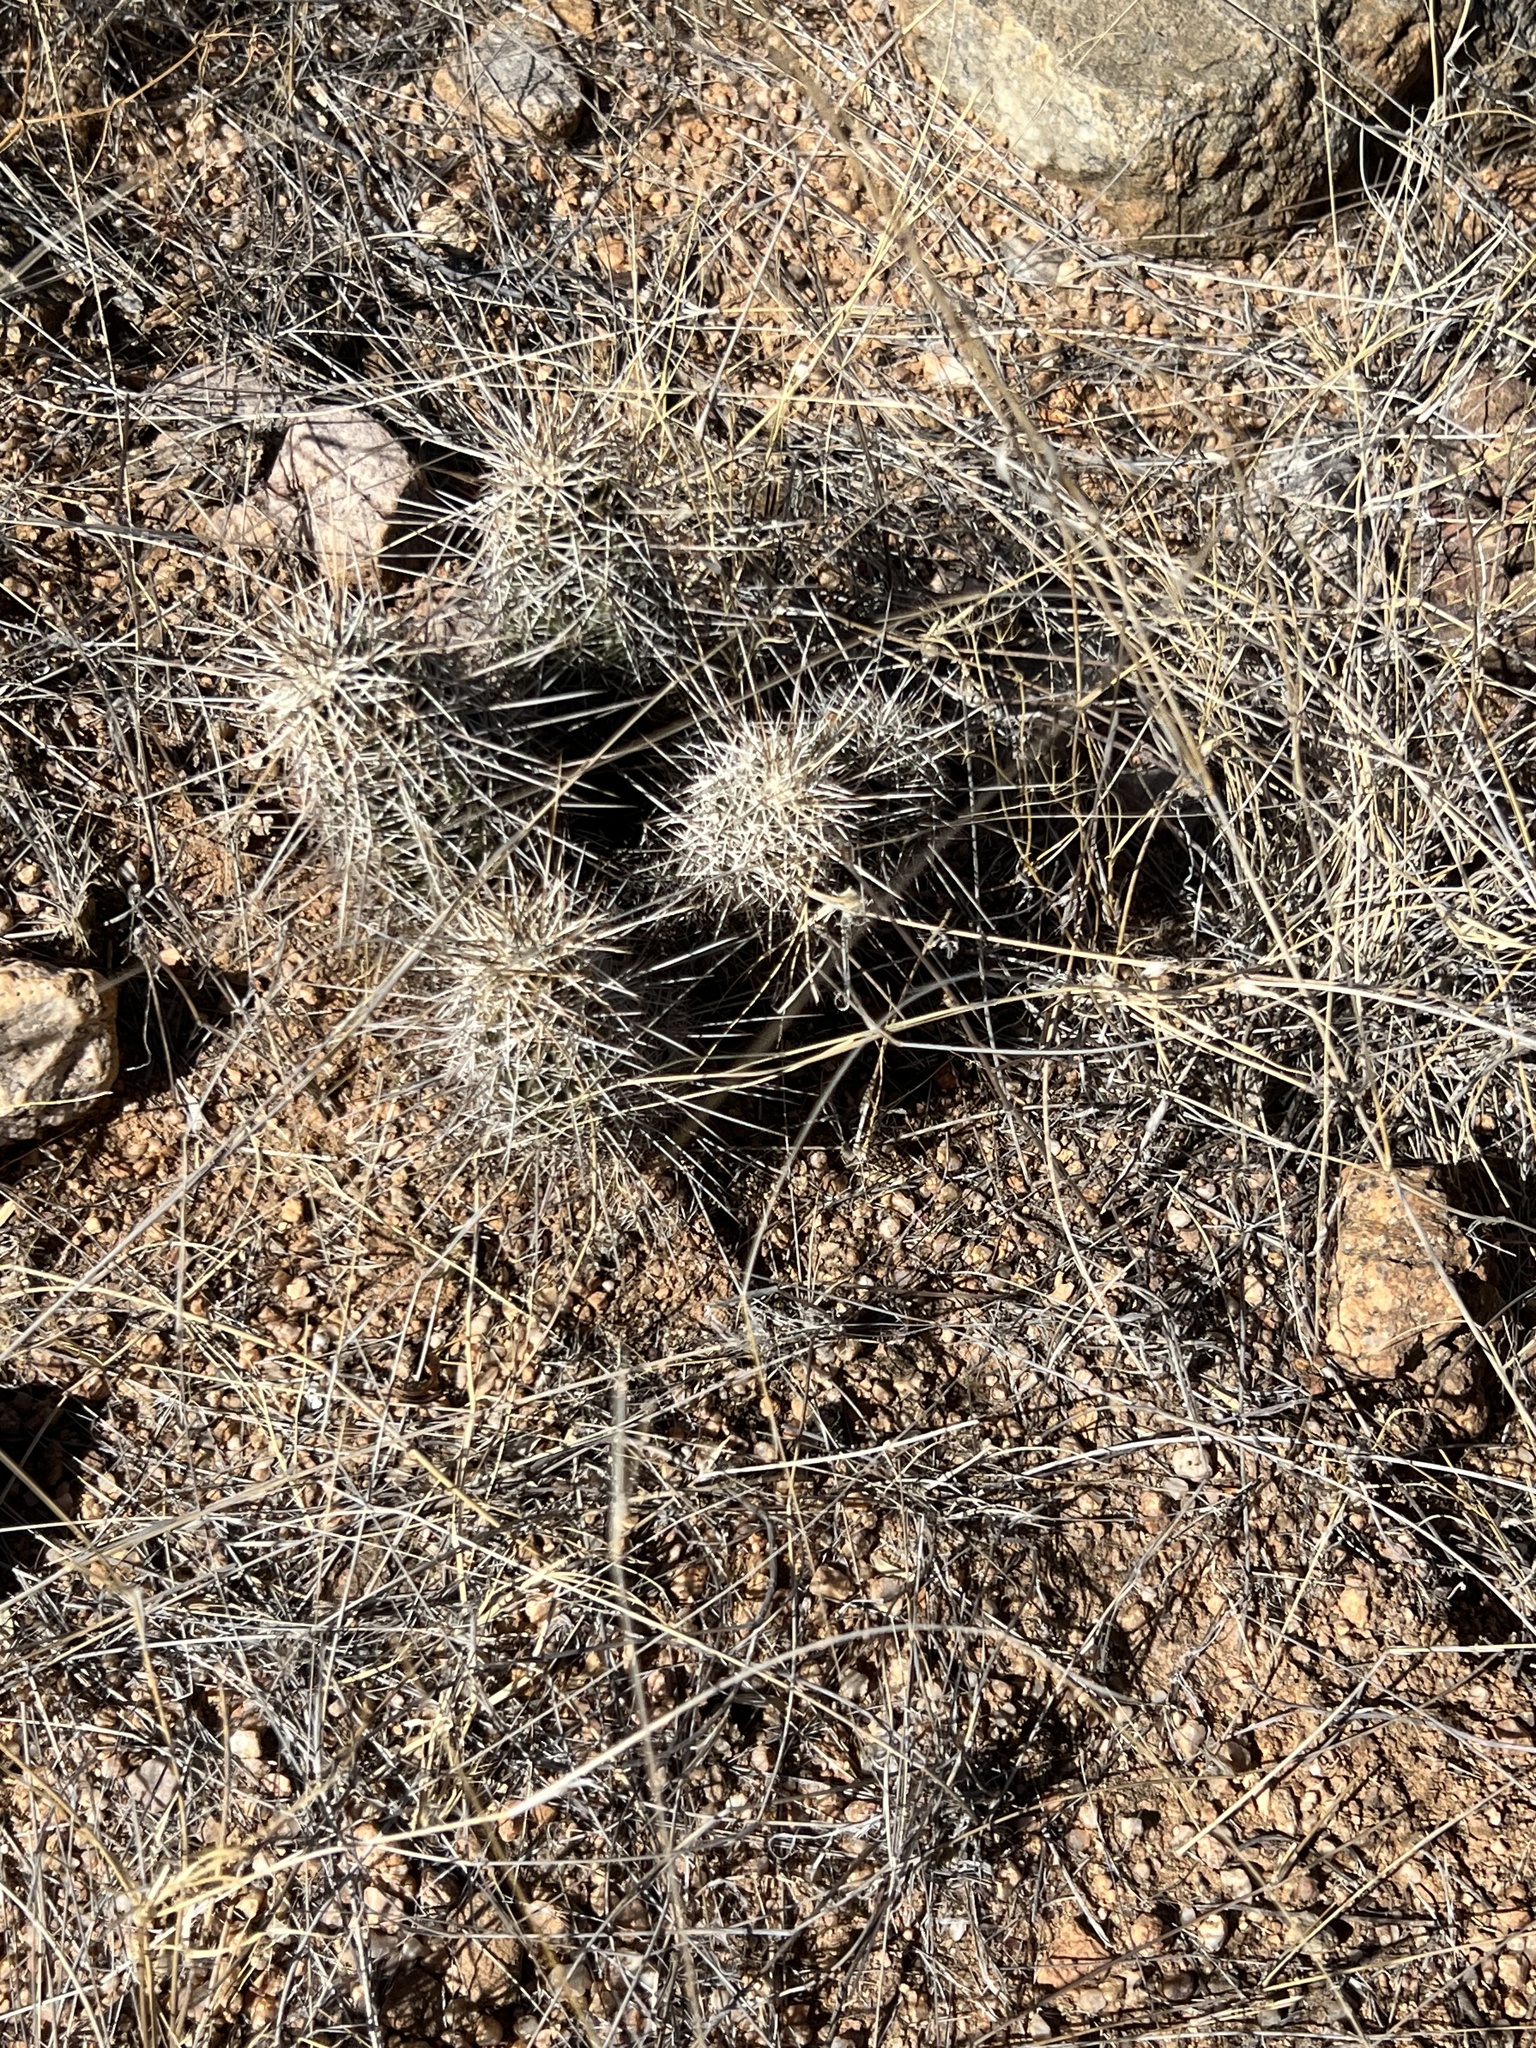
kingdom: Plantae
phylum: Tracheophyta
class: Magnoliopsida
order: Caryophyllales
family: Cactaceae
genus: Echinocereus
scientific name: Echinocereus fasciculatus
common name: Bundle hedgehog
